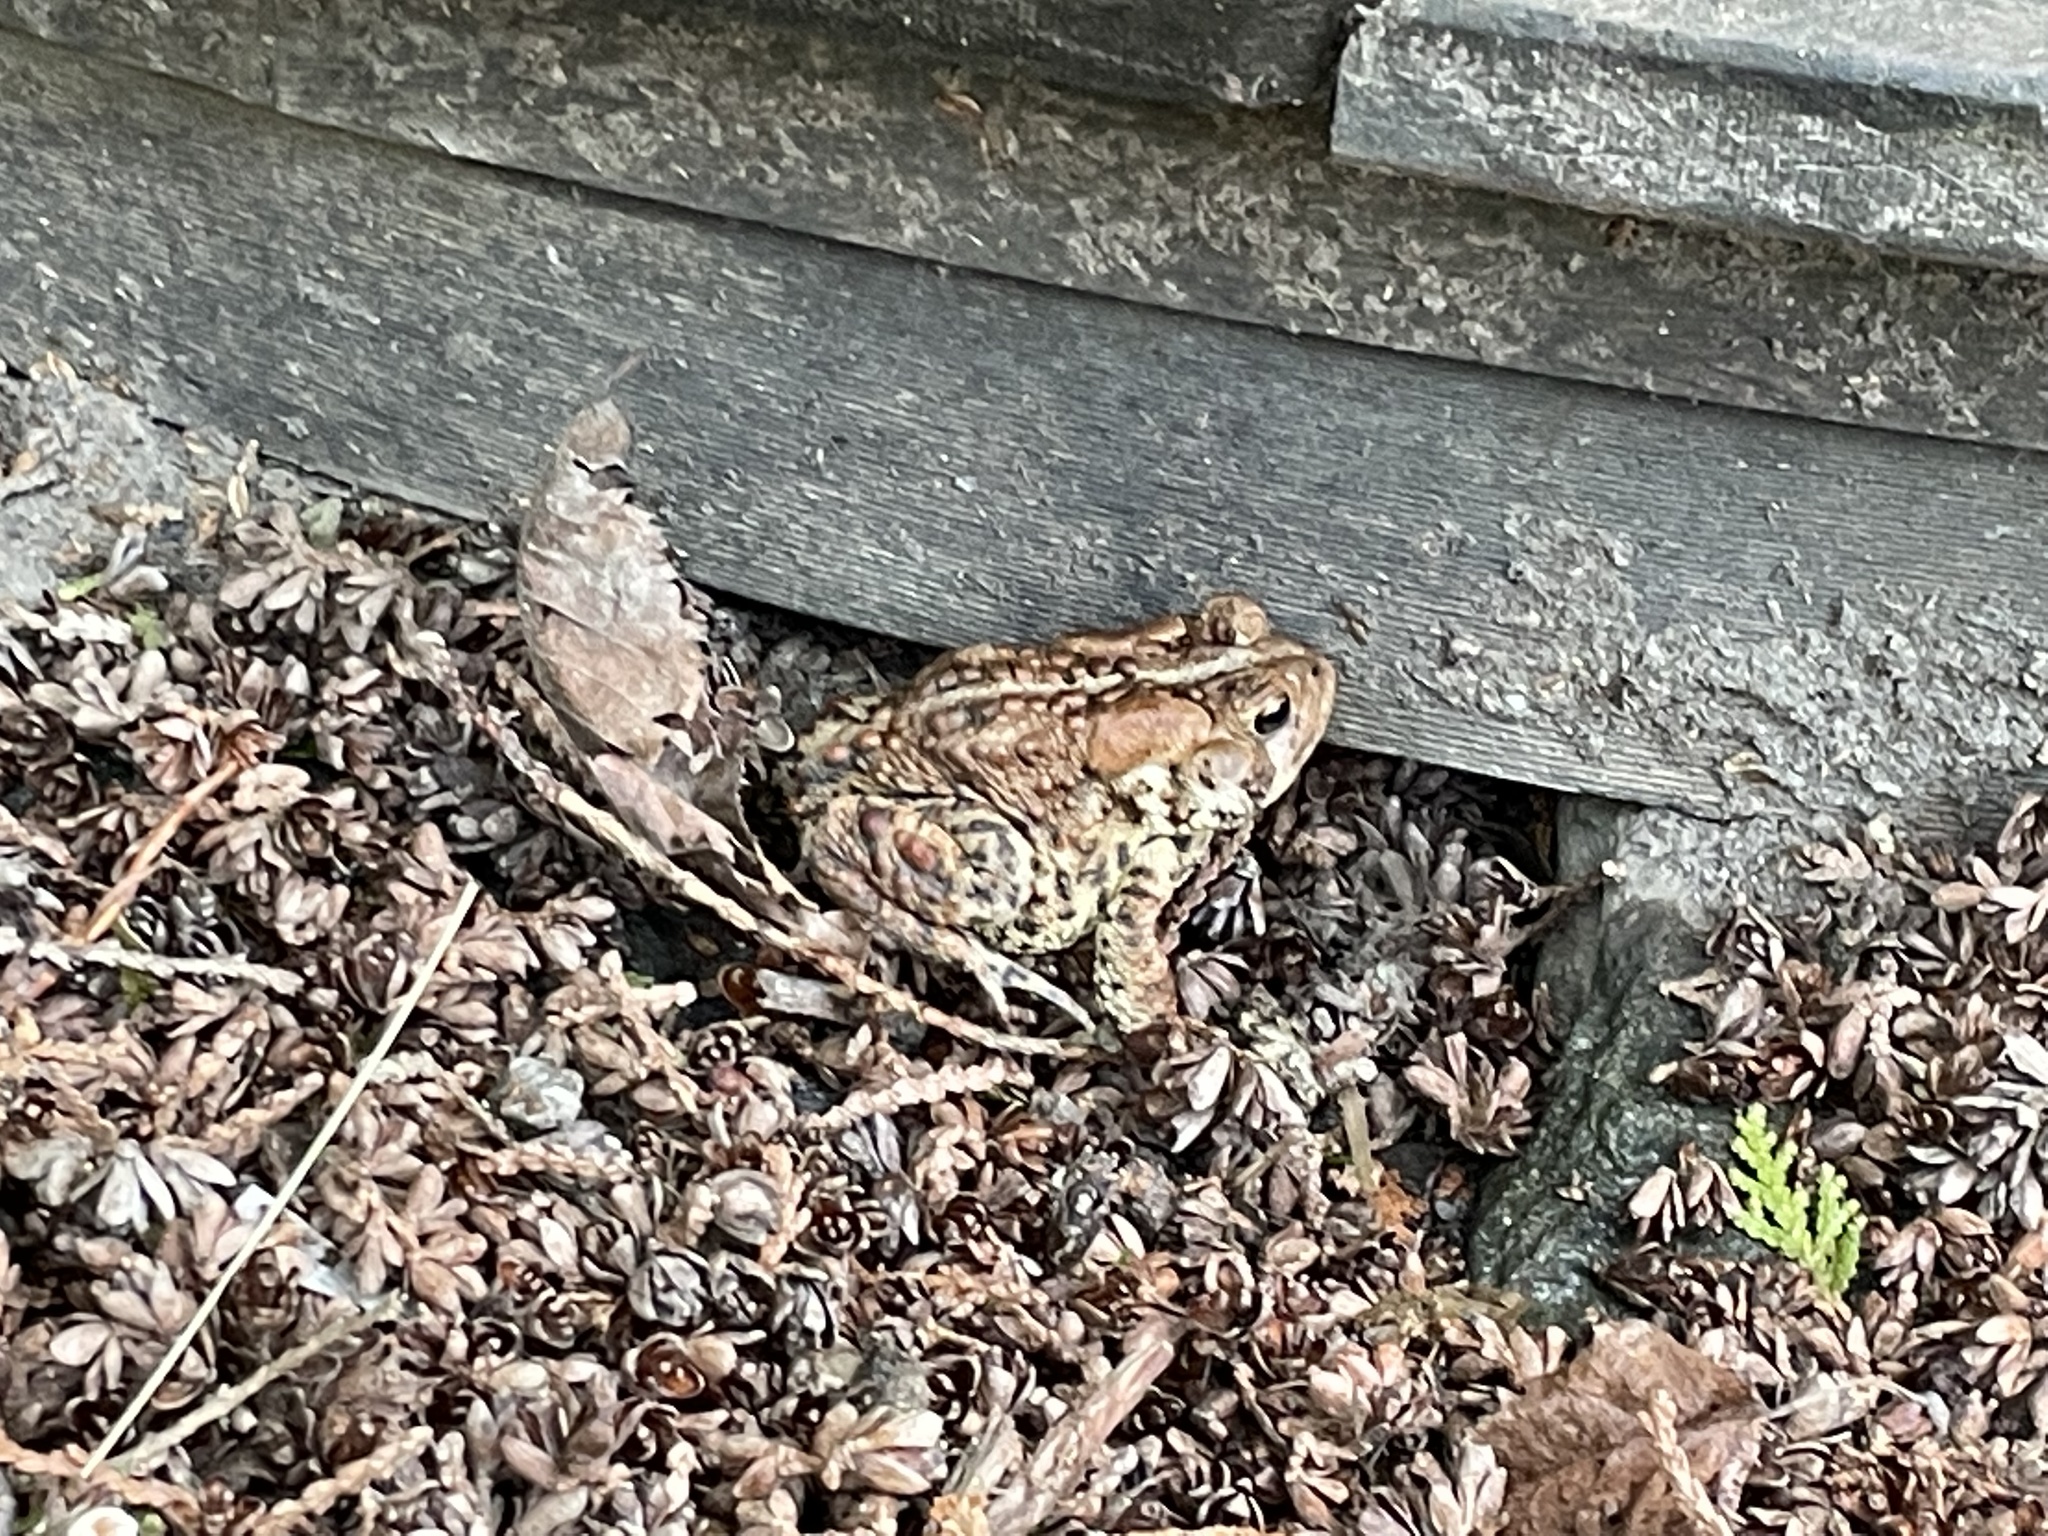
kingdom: Animalia
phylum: Chordata
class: Amphibia
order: Anura
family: Bufonidae
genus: Anaxyrus
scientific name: Anaxyrus americanus
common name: American toad
